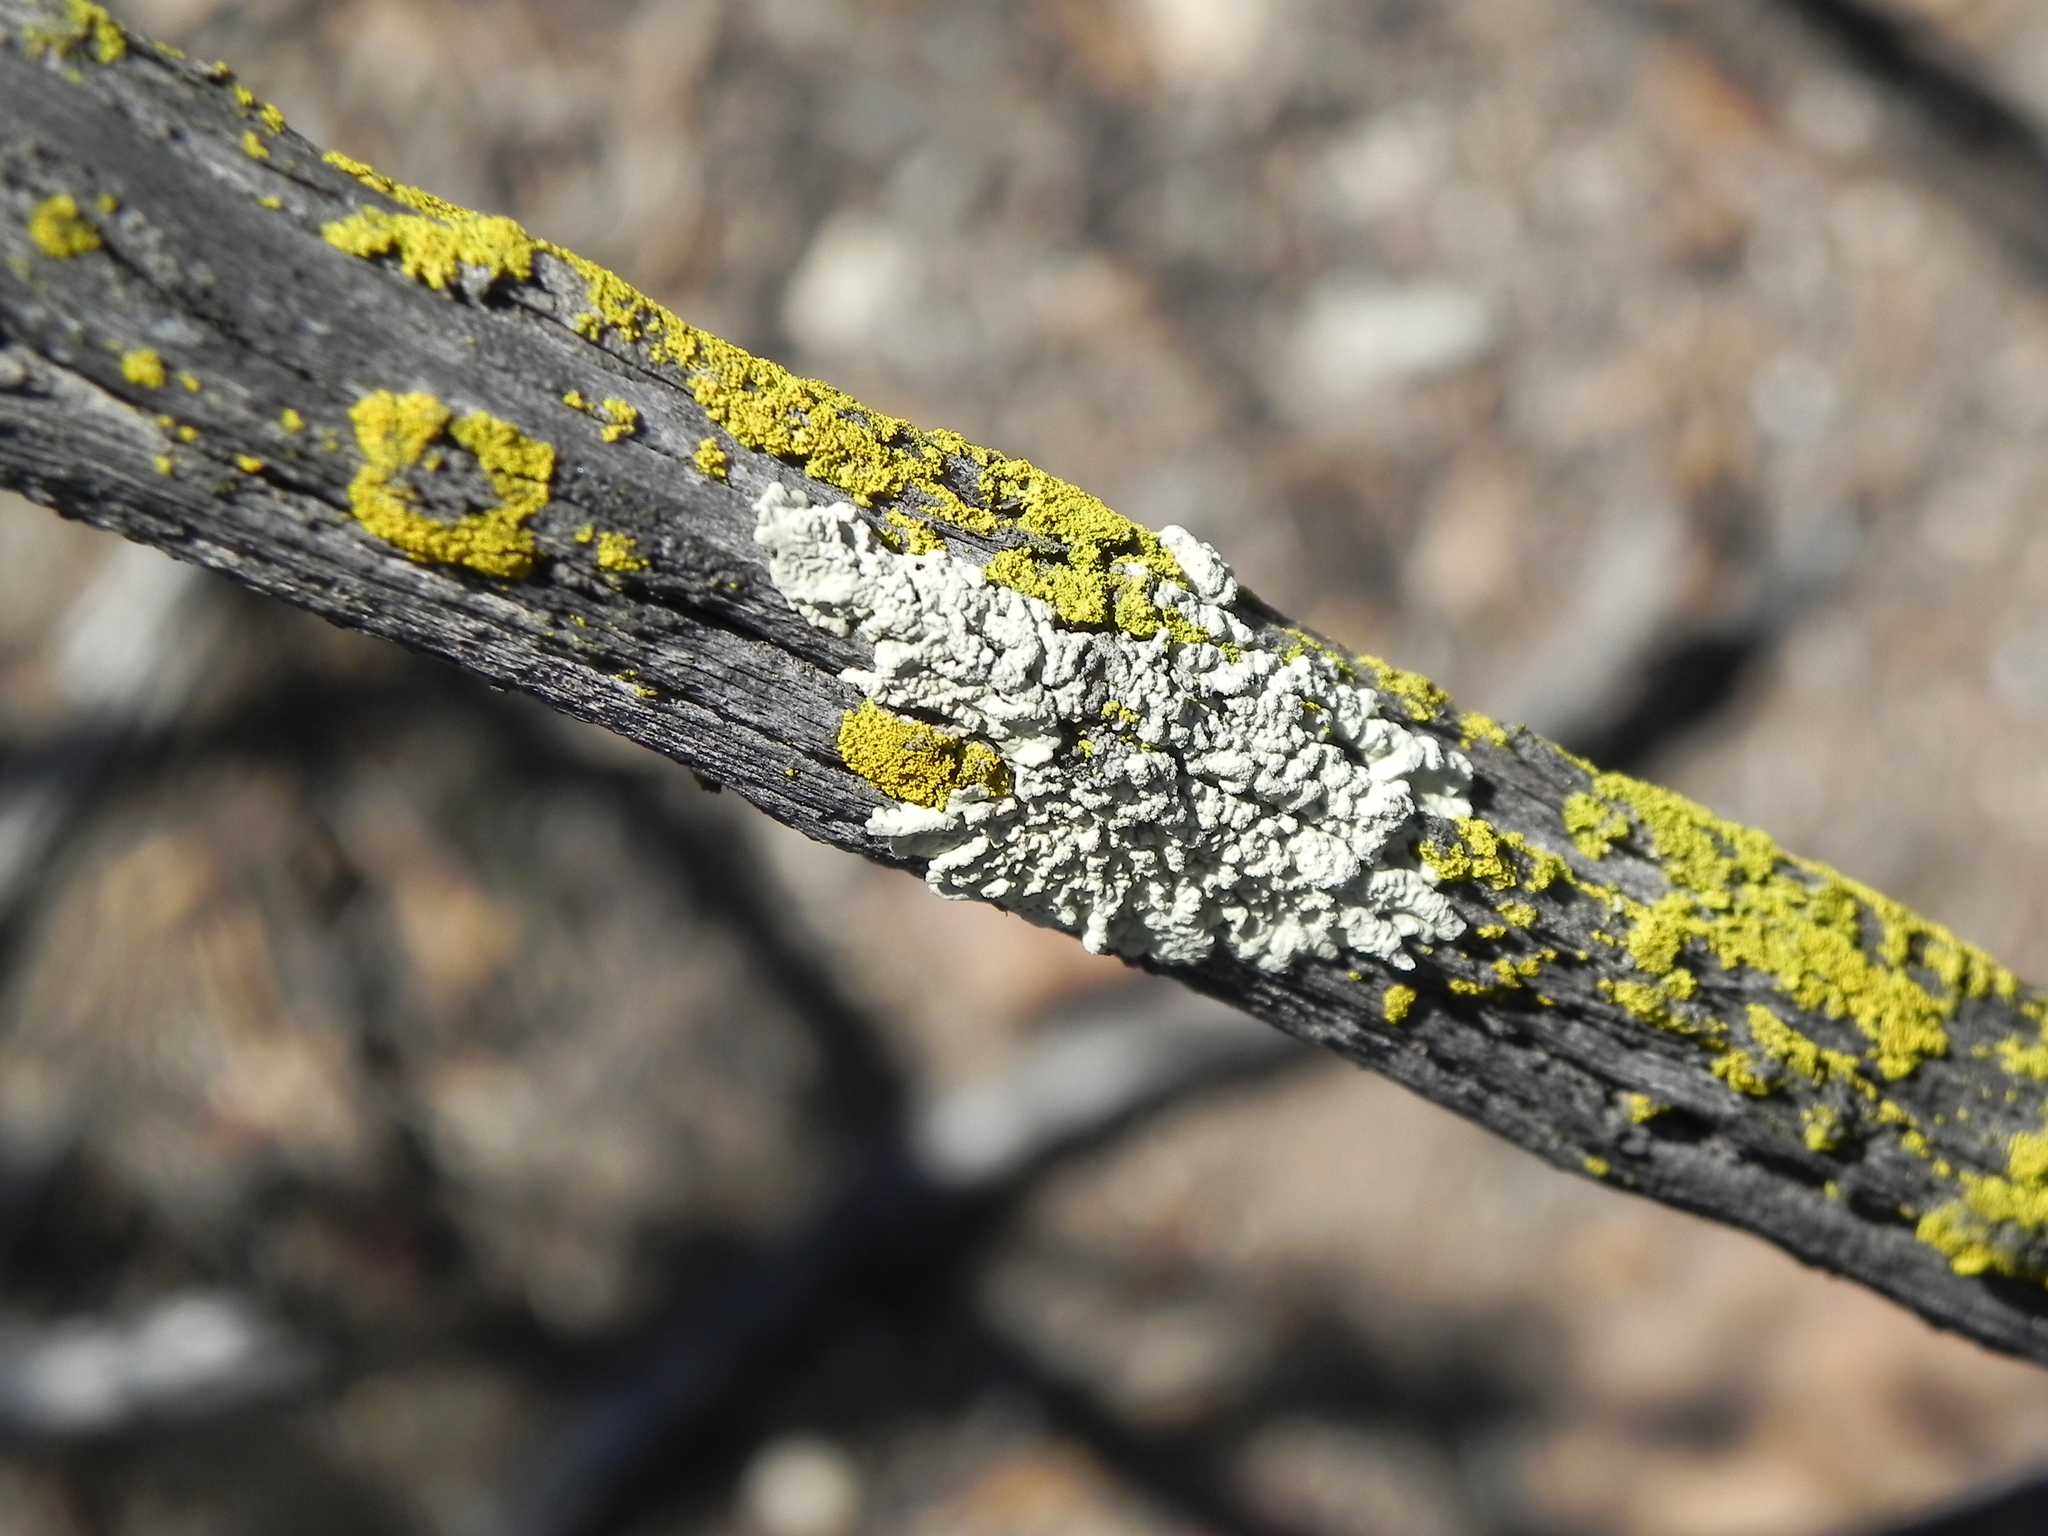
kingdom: Fungi
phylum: Ascomycota
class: Lecanoromycetes
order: Lecanorales
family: Parmeliaceae
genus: Flavoparmelia
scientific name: Flavoparmelia caperata
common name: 40-mile per hour lichen
